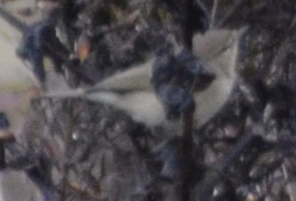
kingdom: Animalia
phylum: Chordata
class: Aves
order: Passeriformes
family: Phylloscopidae
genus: Phylloscopus
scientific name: Phylloscopus collybita
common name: Common chiffchaff
